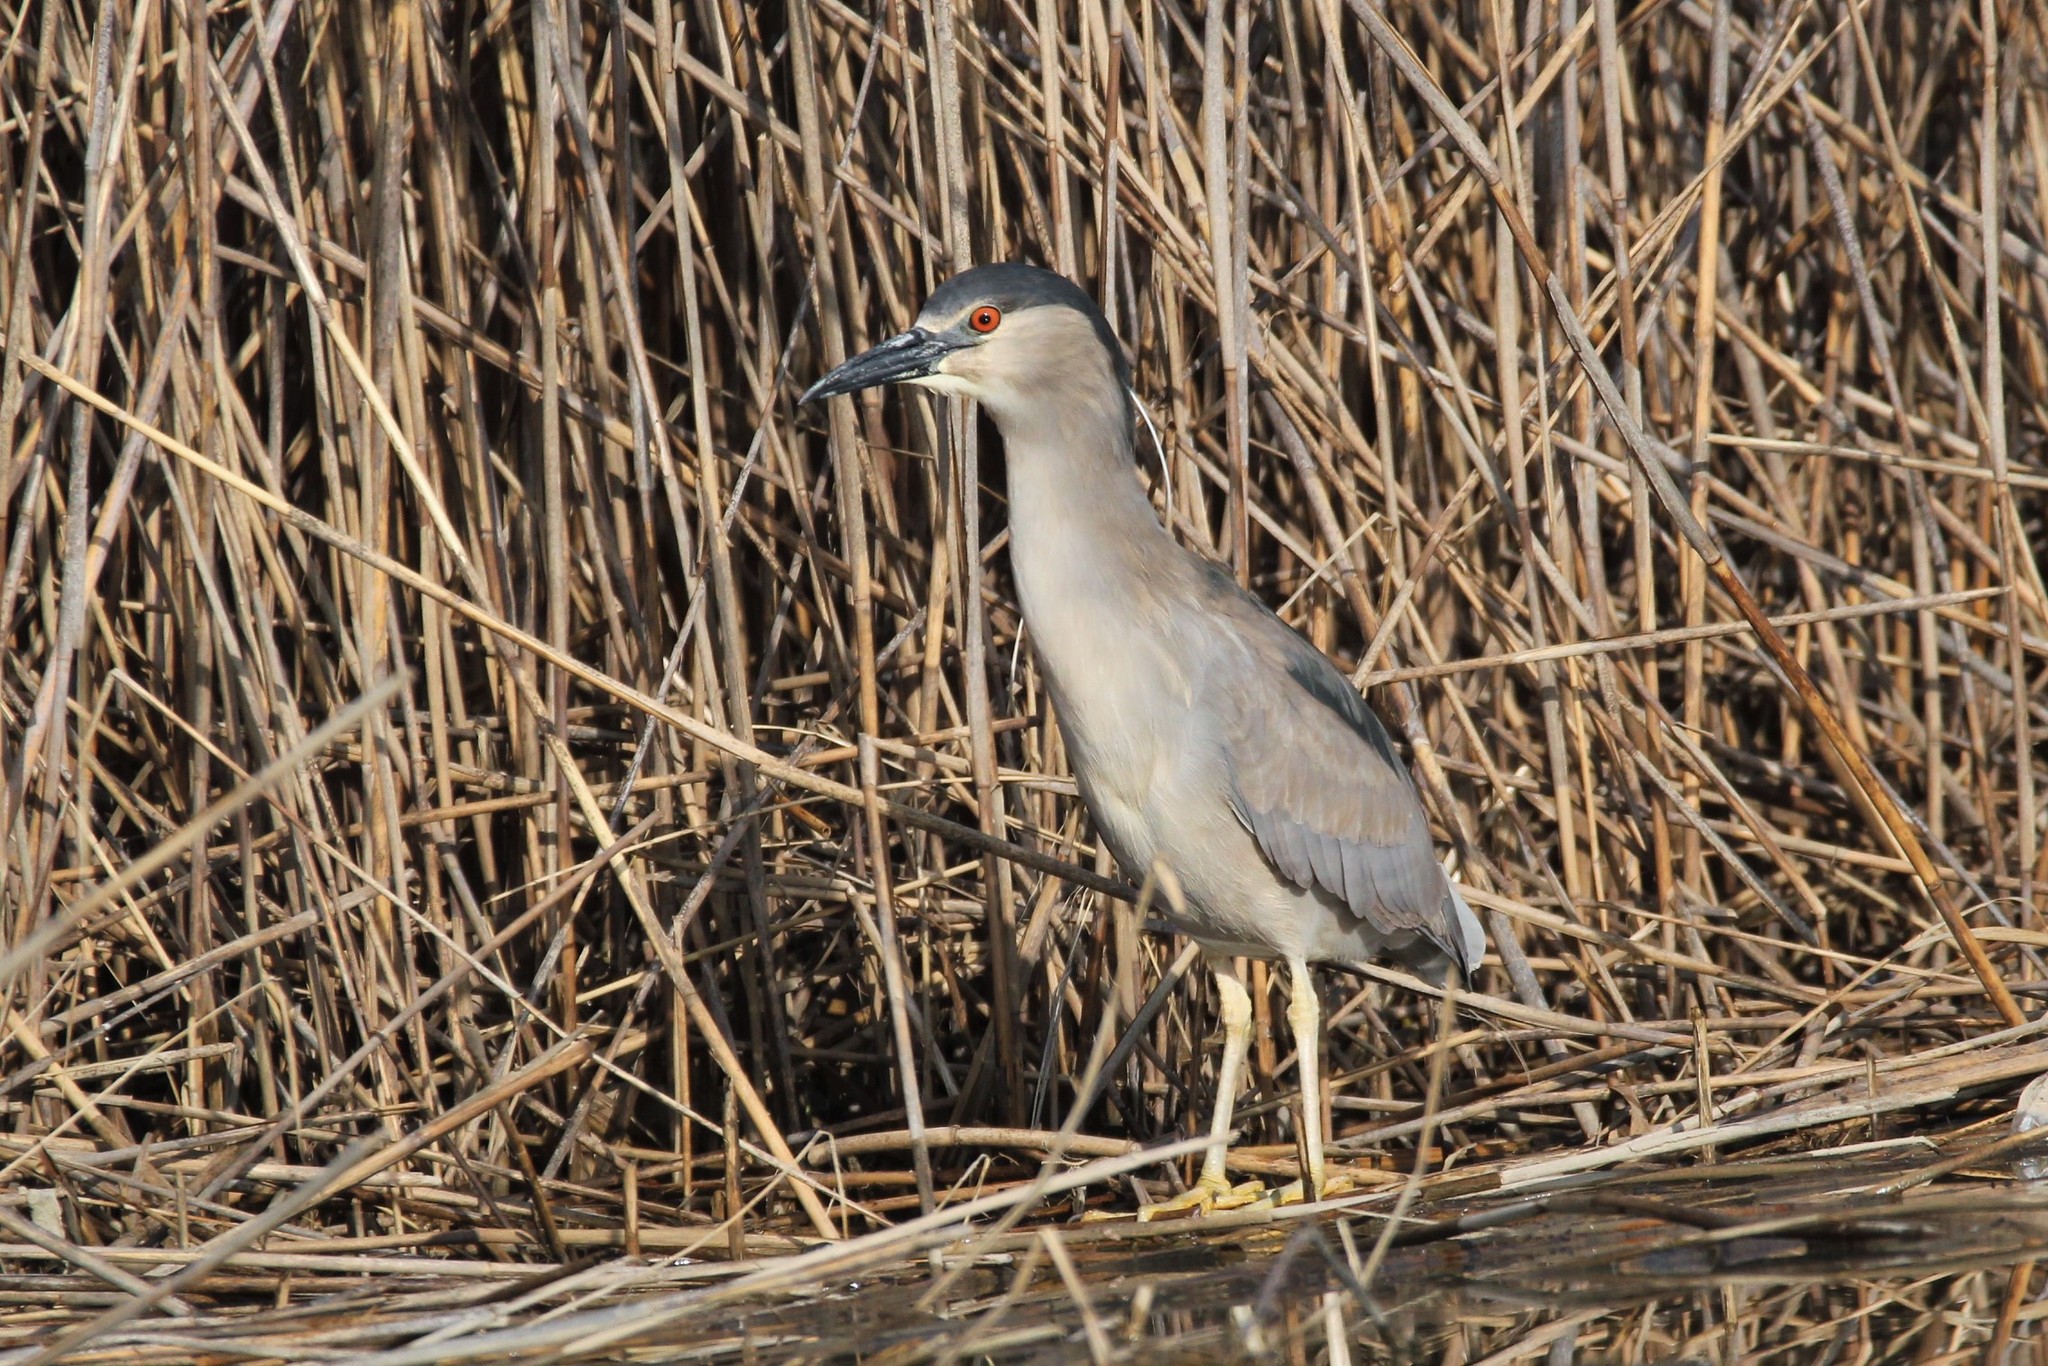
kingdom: Animalia
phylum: Chordata
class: Aves
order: Pelecaniformes
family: Ardeidae
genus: Nycticorax
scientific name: Nycticorax nycticorax
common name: Black-crowned night heron
